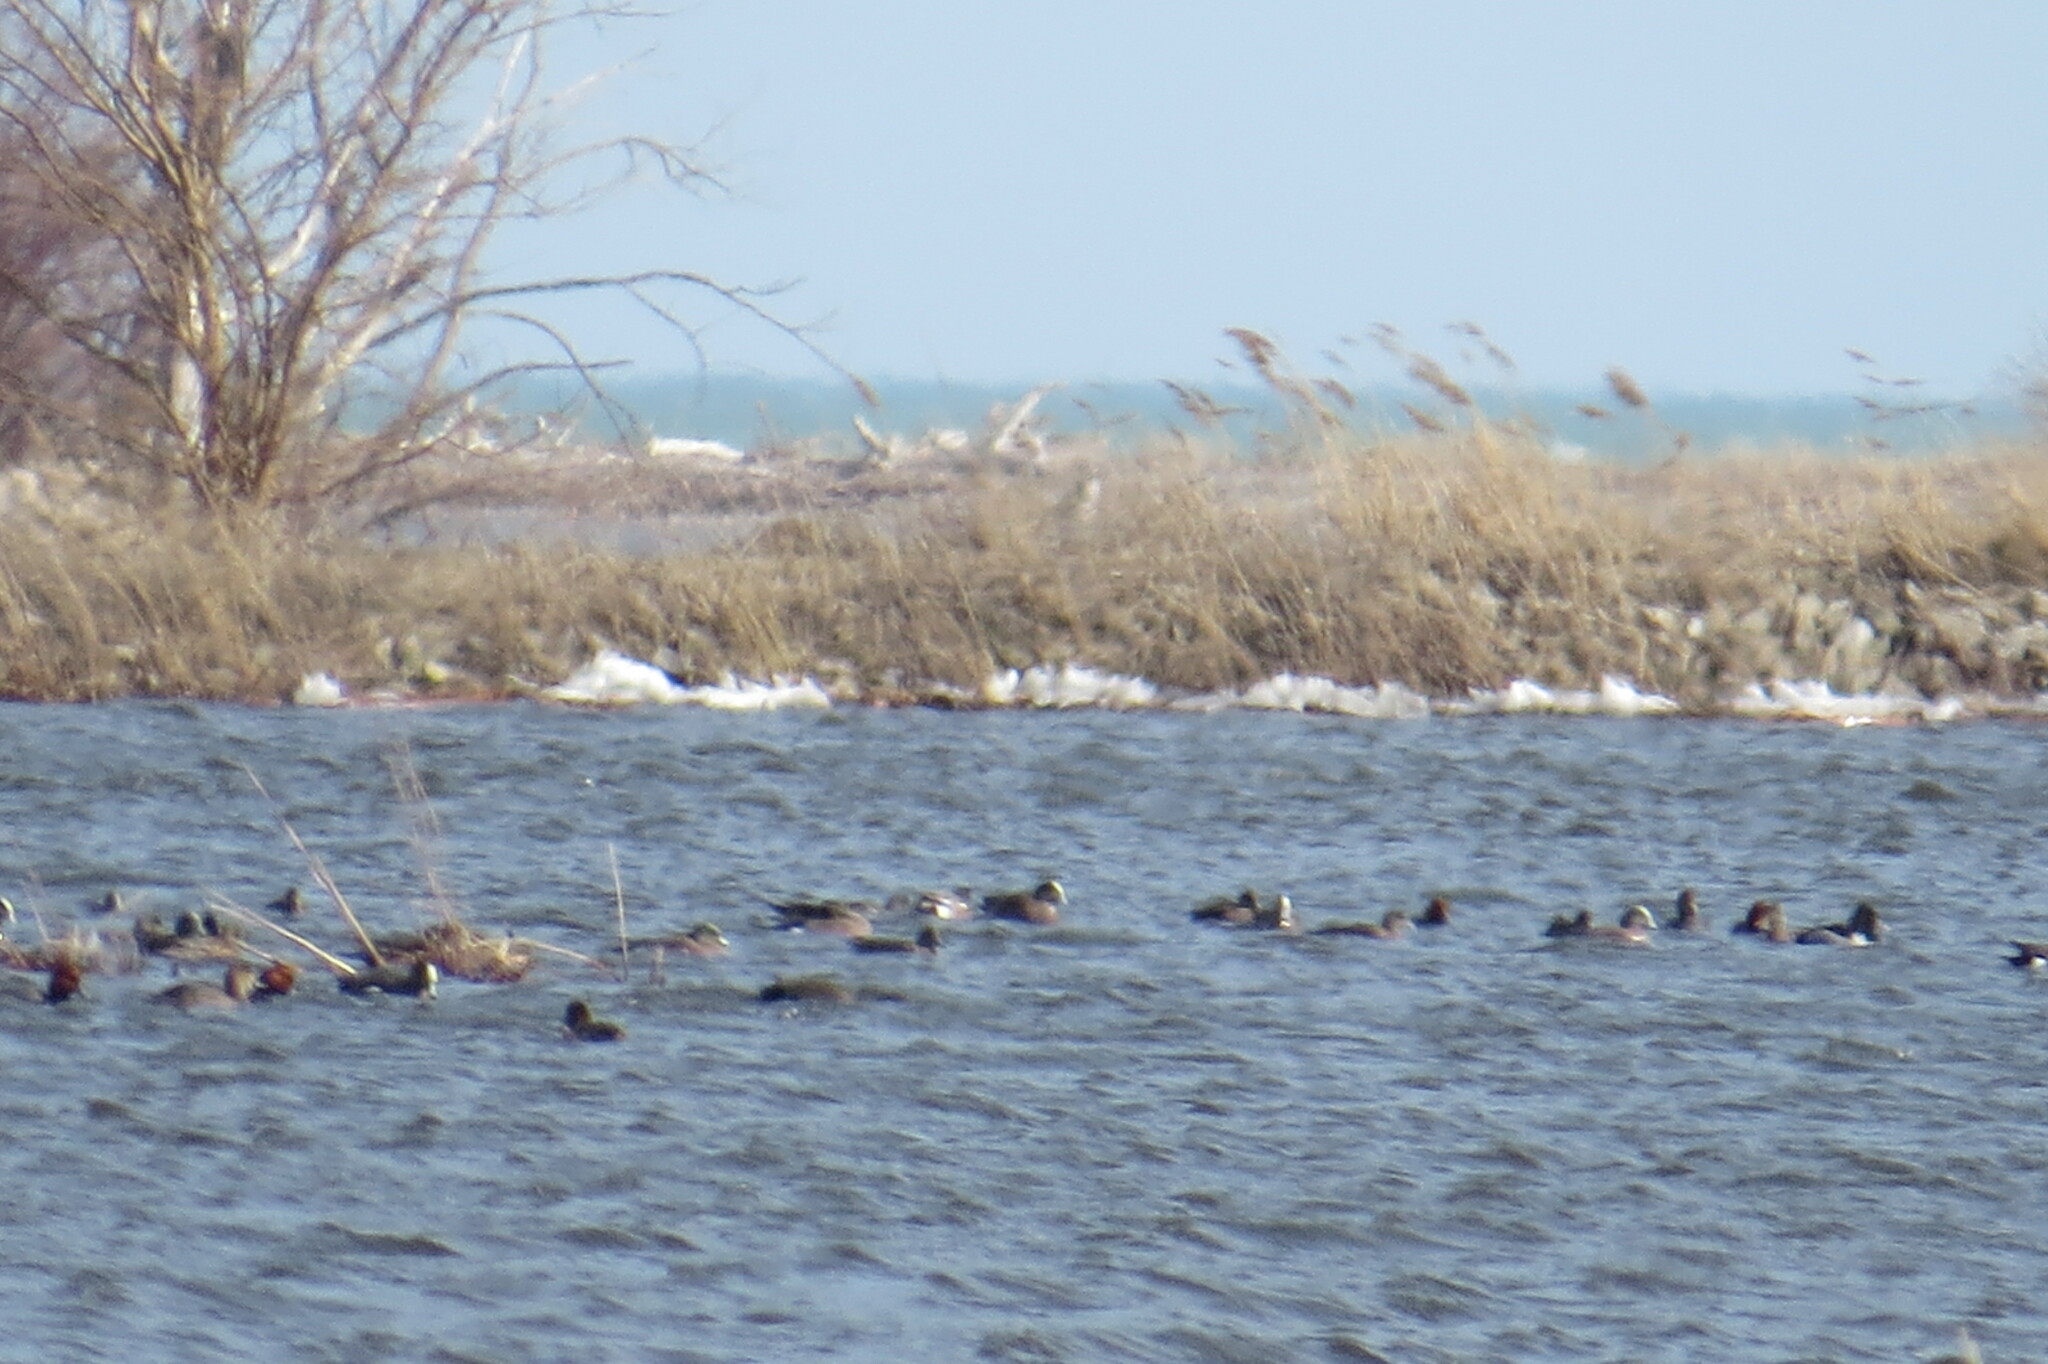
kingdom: Animalia
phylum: Chordata
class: Aves
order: Anseriformes
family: Anatidae
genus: Mareca
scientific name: Mareca americana
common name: American wigeon
